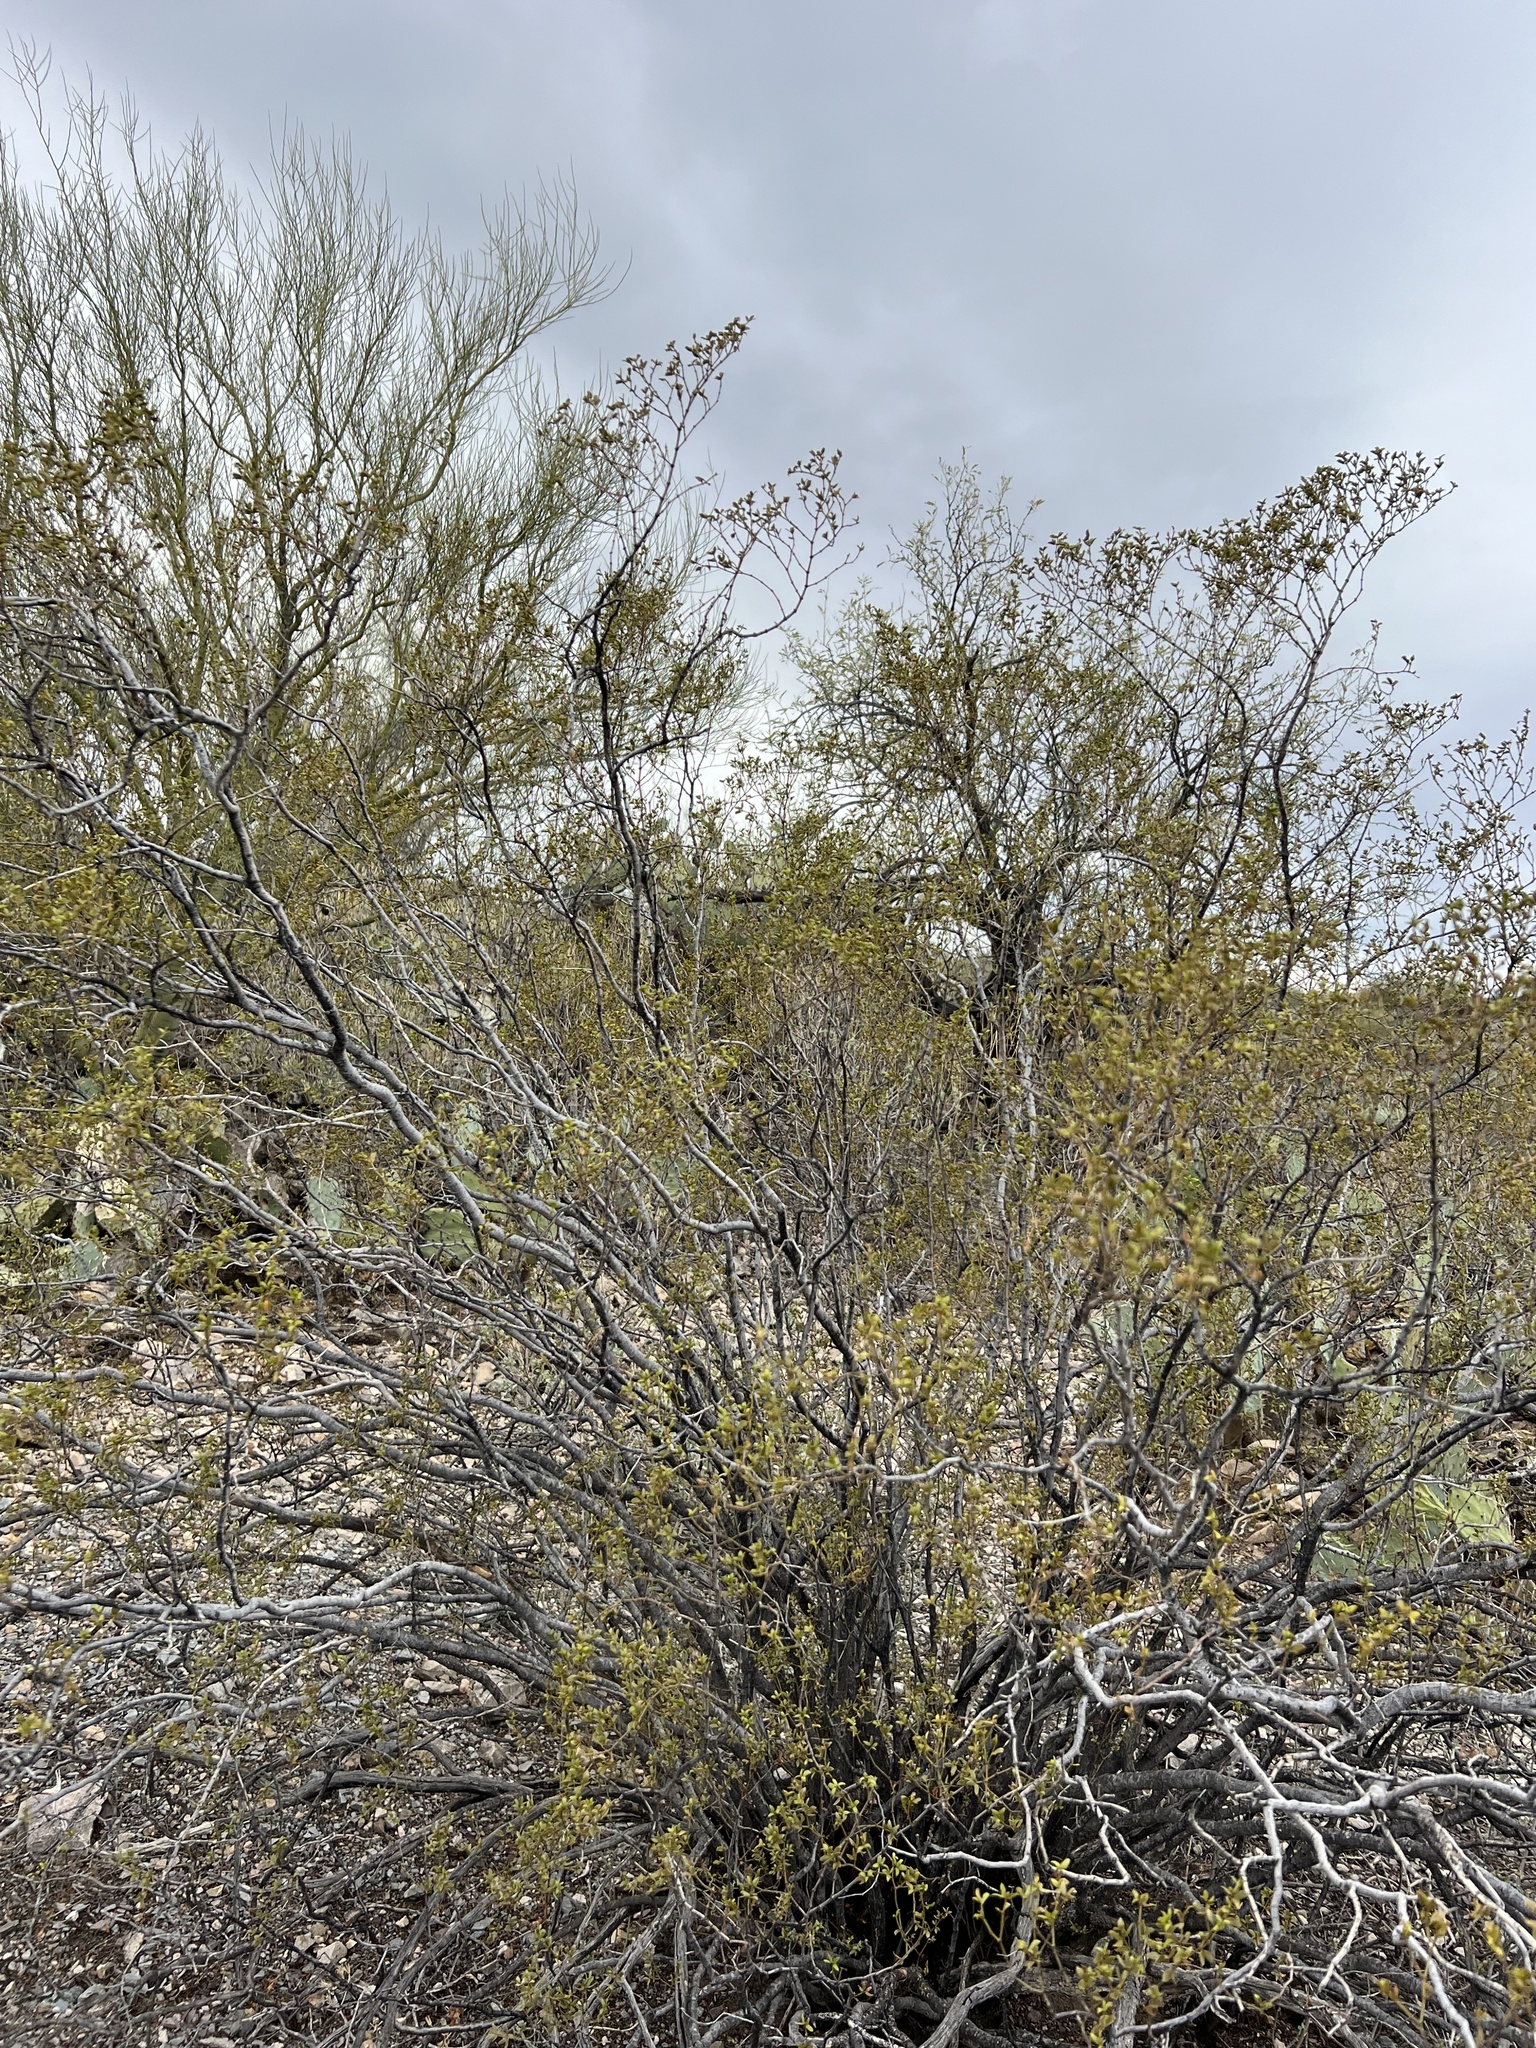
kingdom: Plantae
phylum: Tracheophyta
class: Magnoliopsida
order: Zygophyllales
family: Zygophyllaceae
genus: Larrea
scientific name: Larrea tridentata
